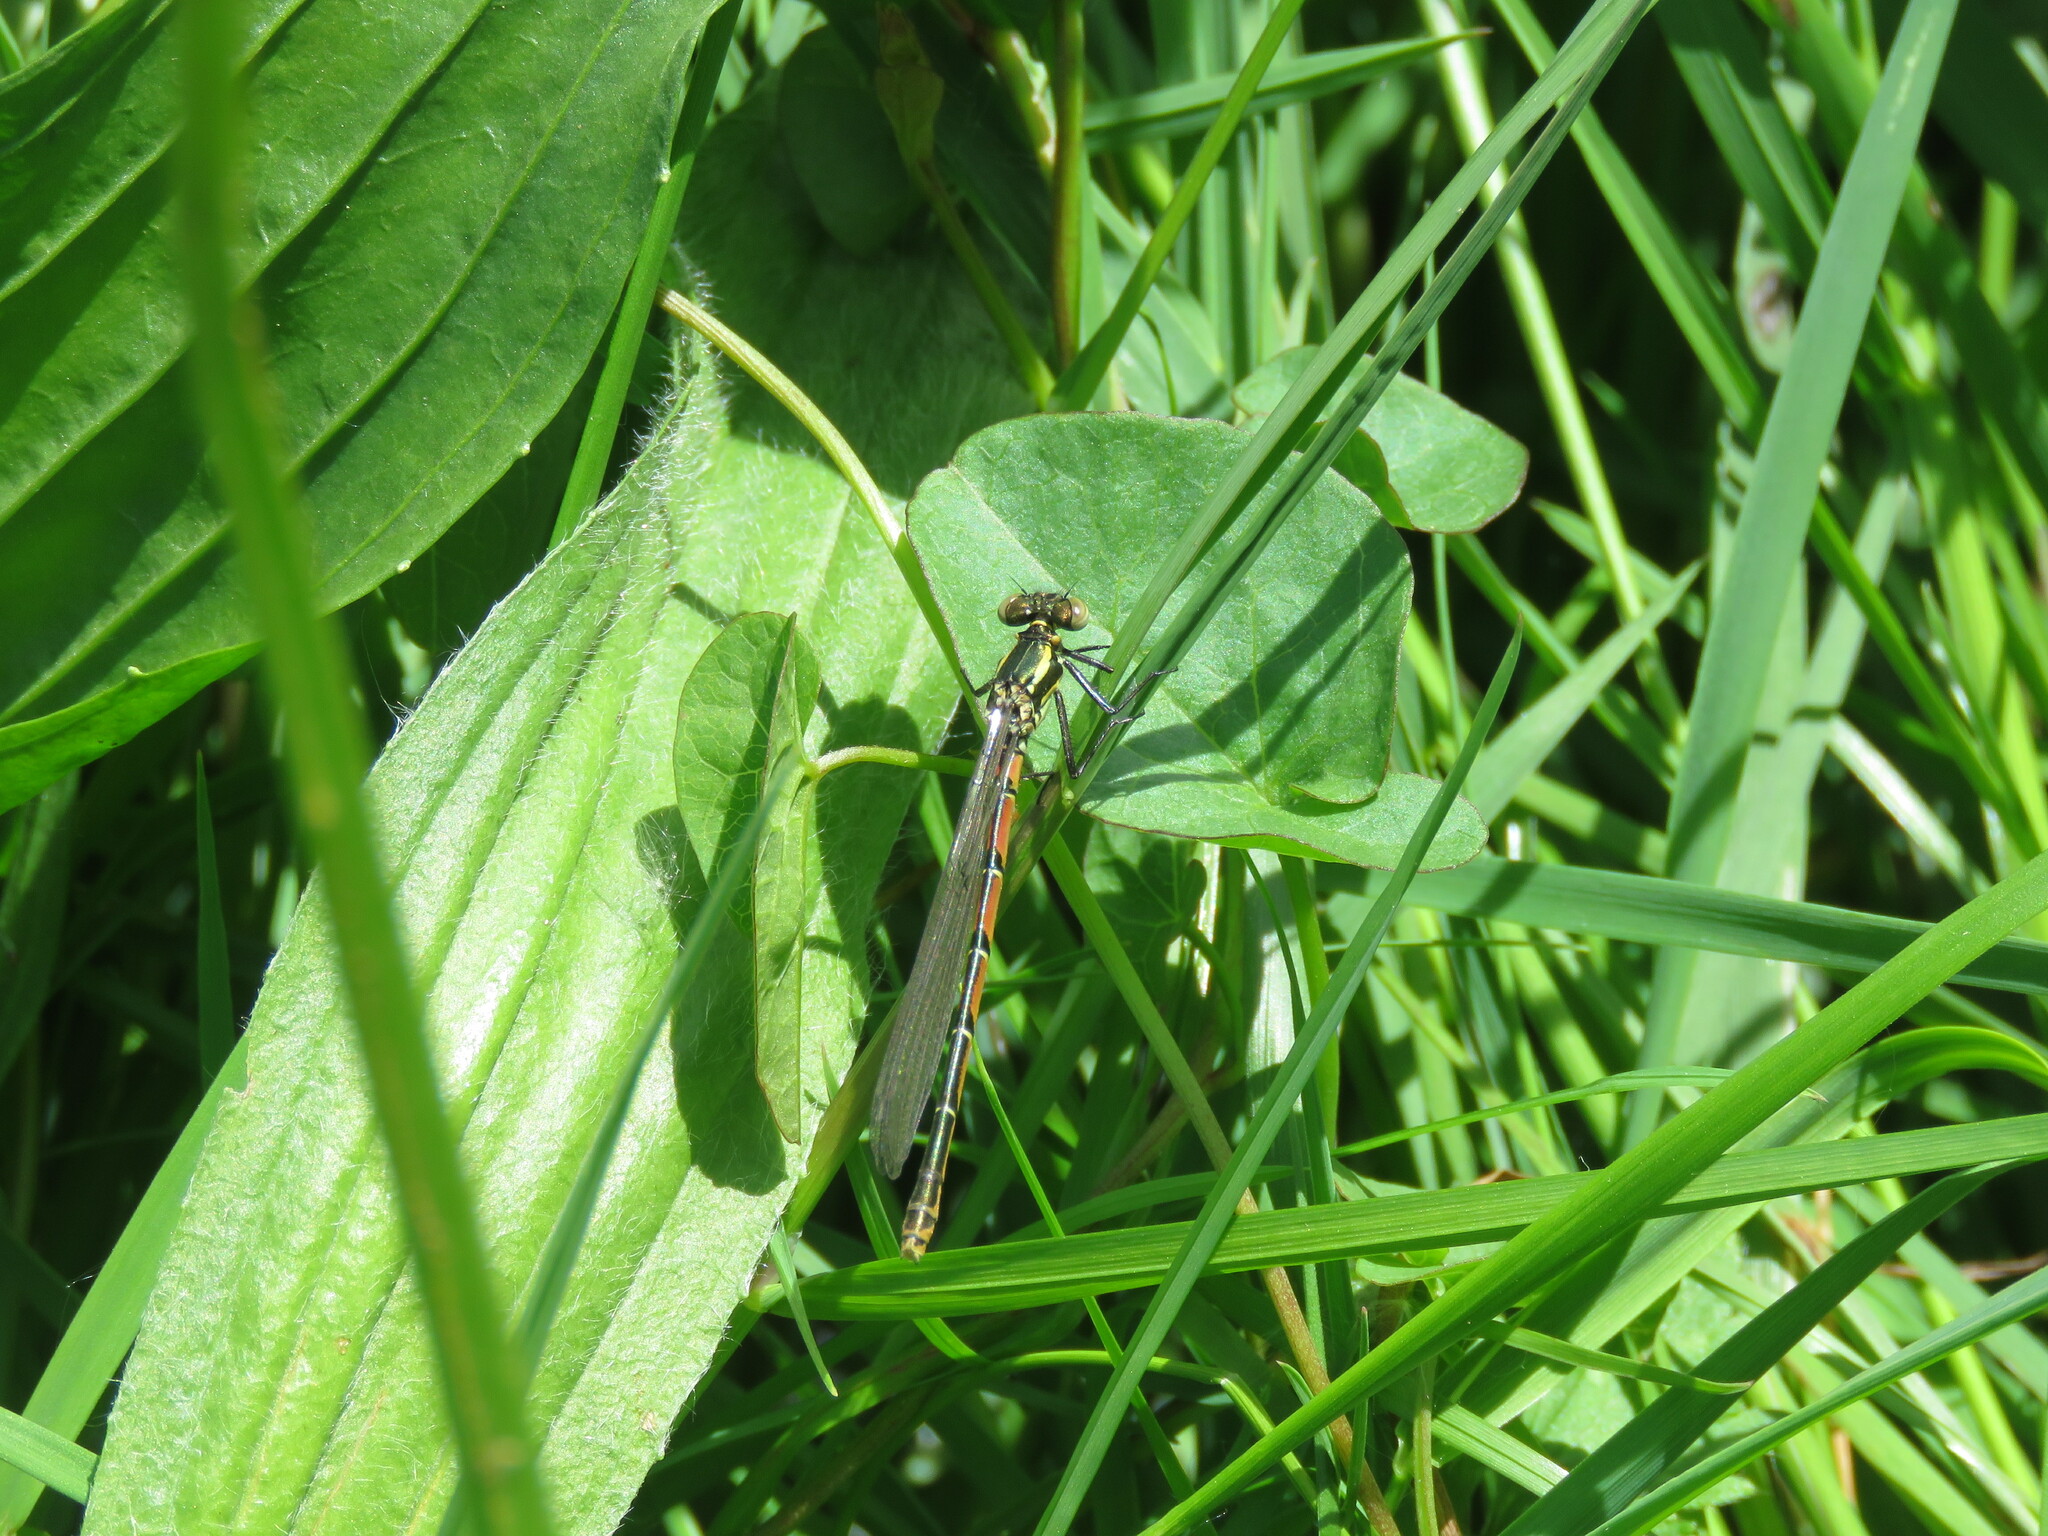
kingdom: Animalia
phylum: Arthropoda
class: Insecta
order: Odonata
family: Coenagrionidae
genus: Pyrrhosoma
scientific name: Pyrrhosoma nymphula
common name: Large red damsel
